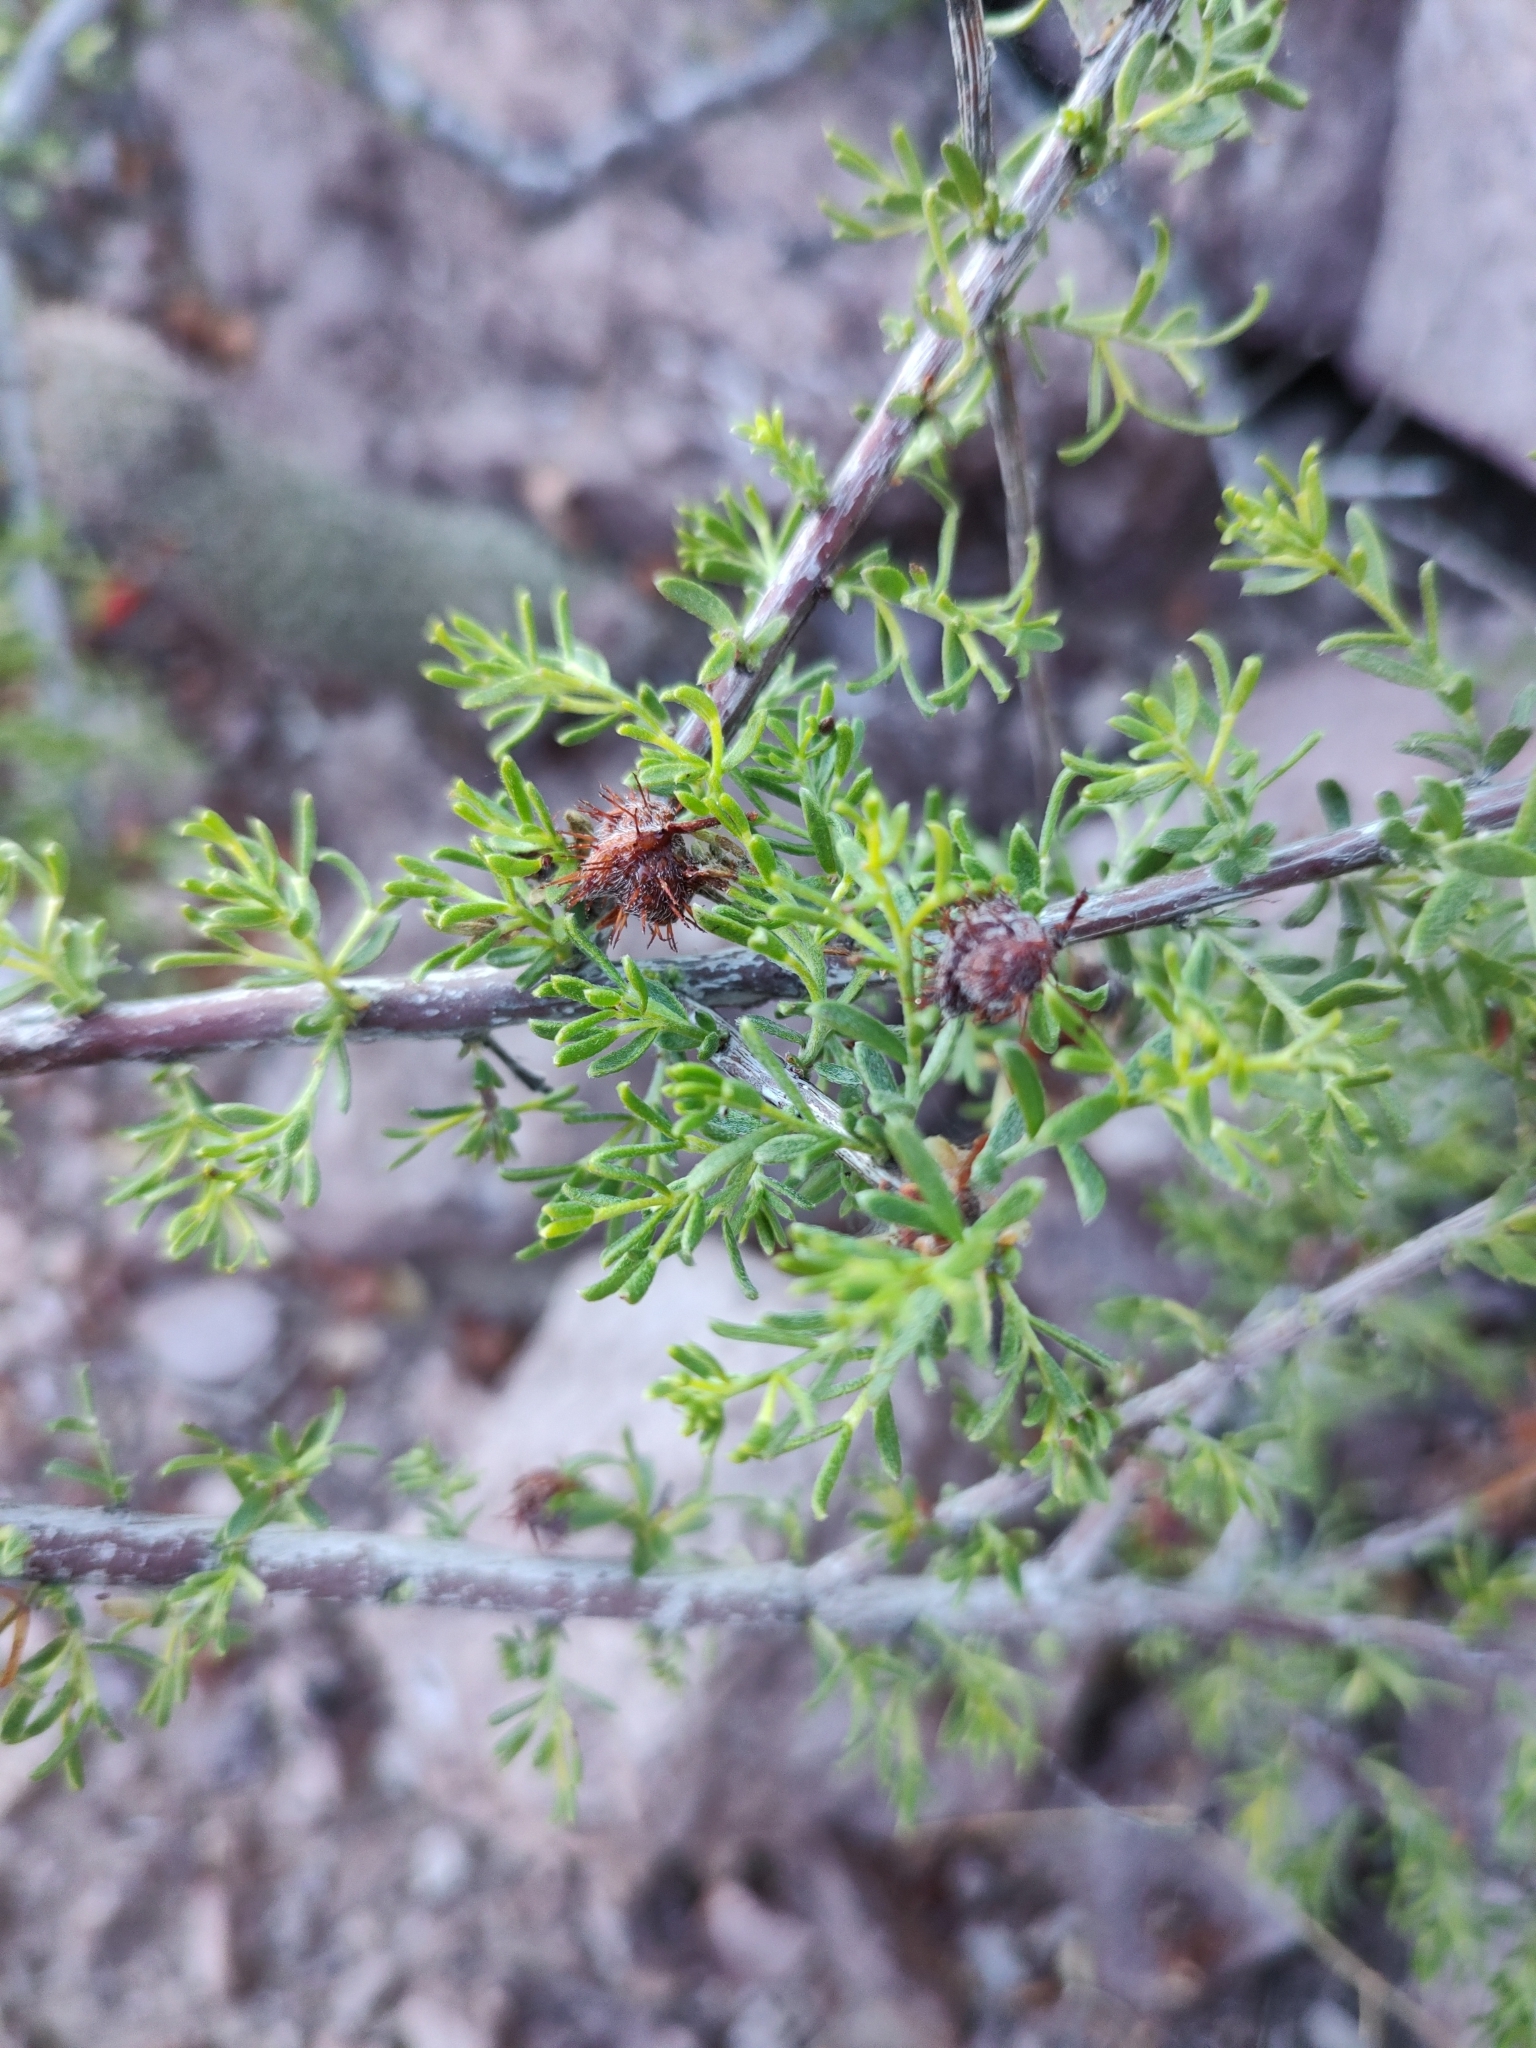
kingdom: Plantae
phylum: Tracheophyta
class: Magnoliopsida
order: Zygophyllales
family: Krameriaceae
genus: Krameria
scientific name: Krameria erecta
